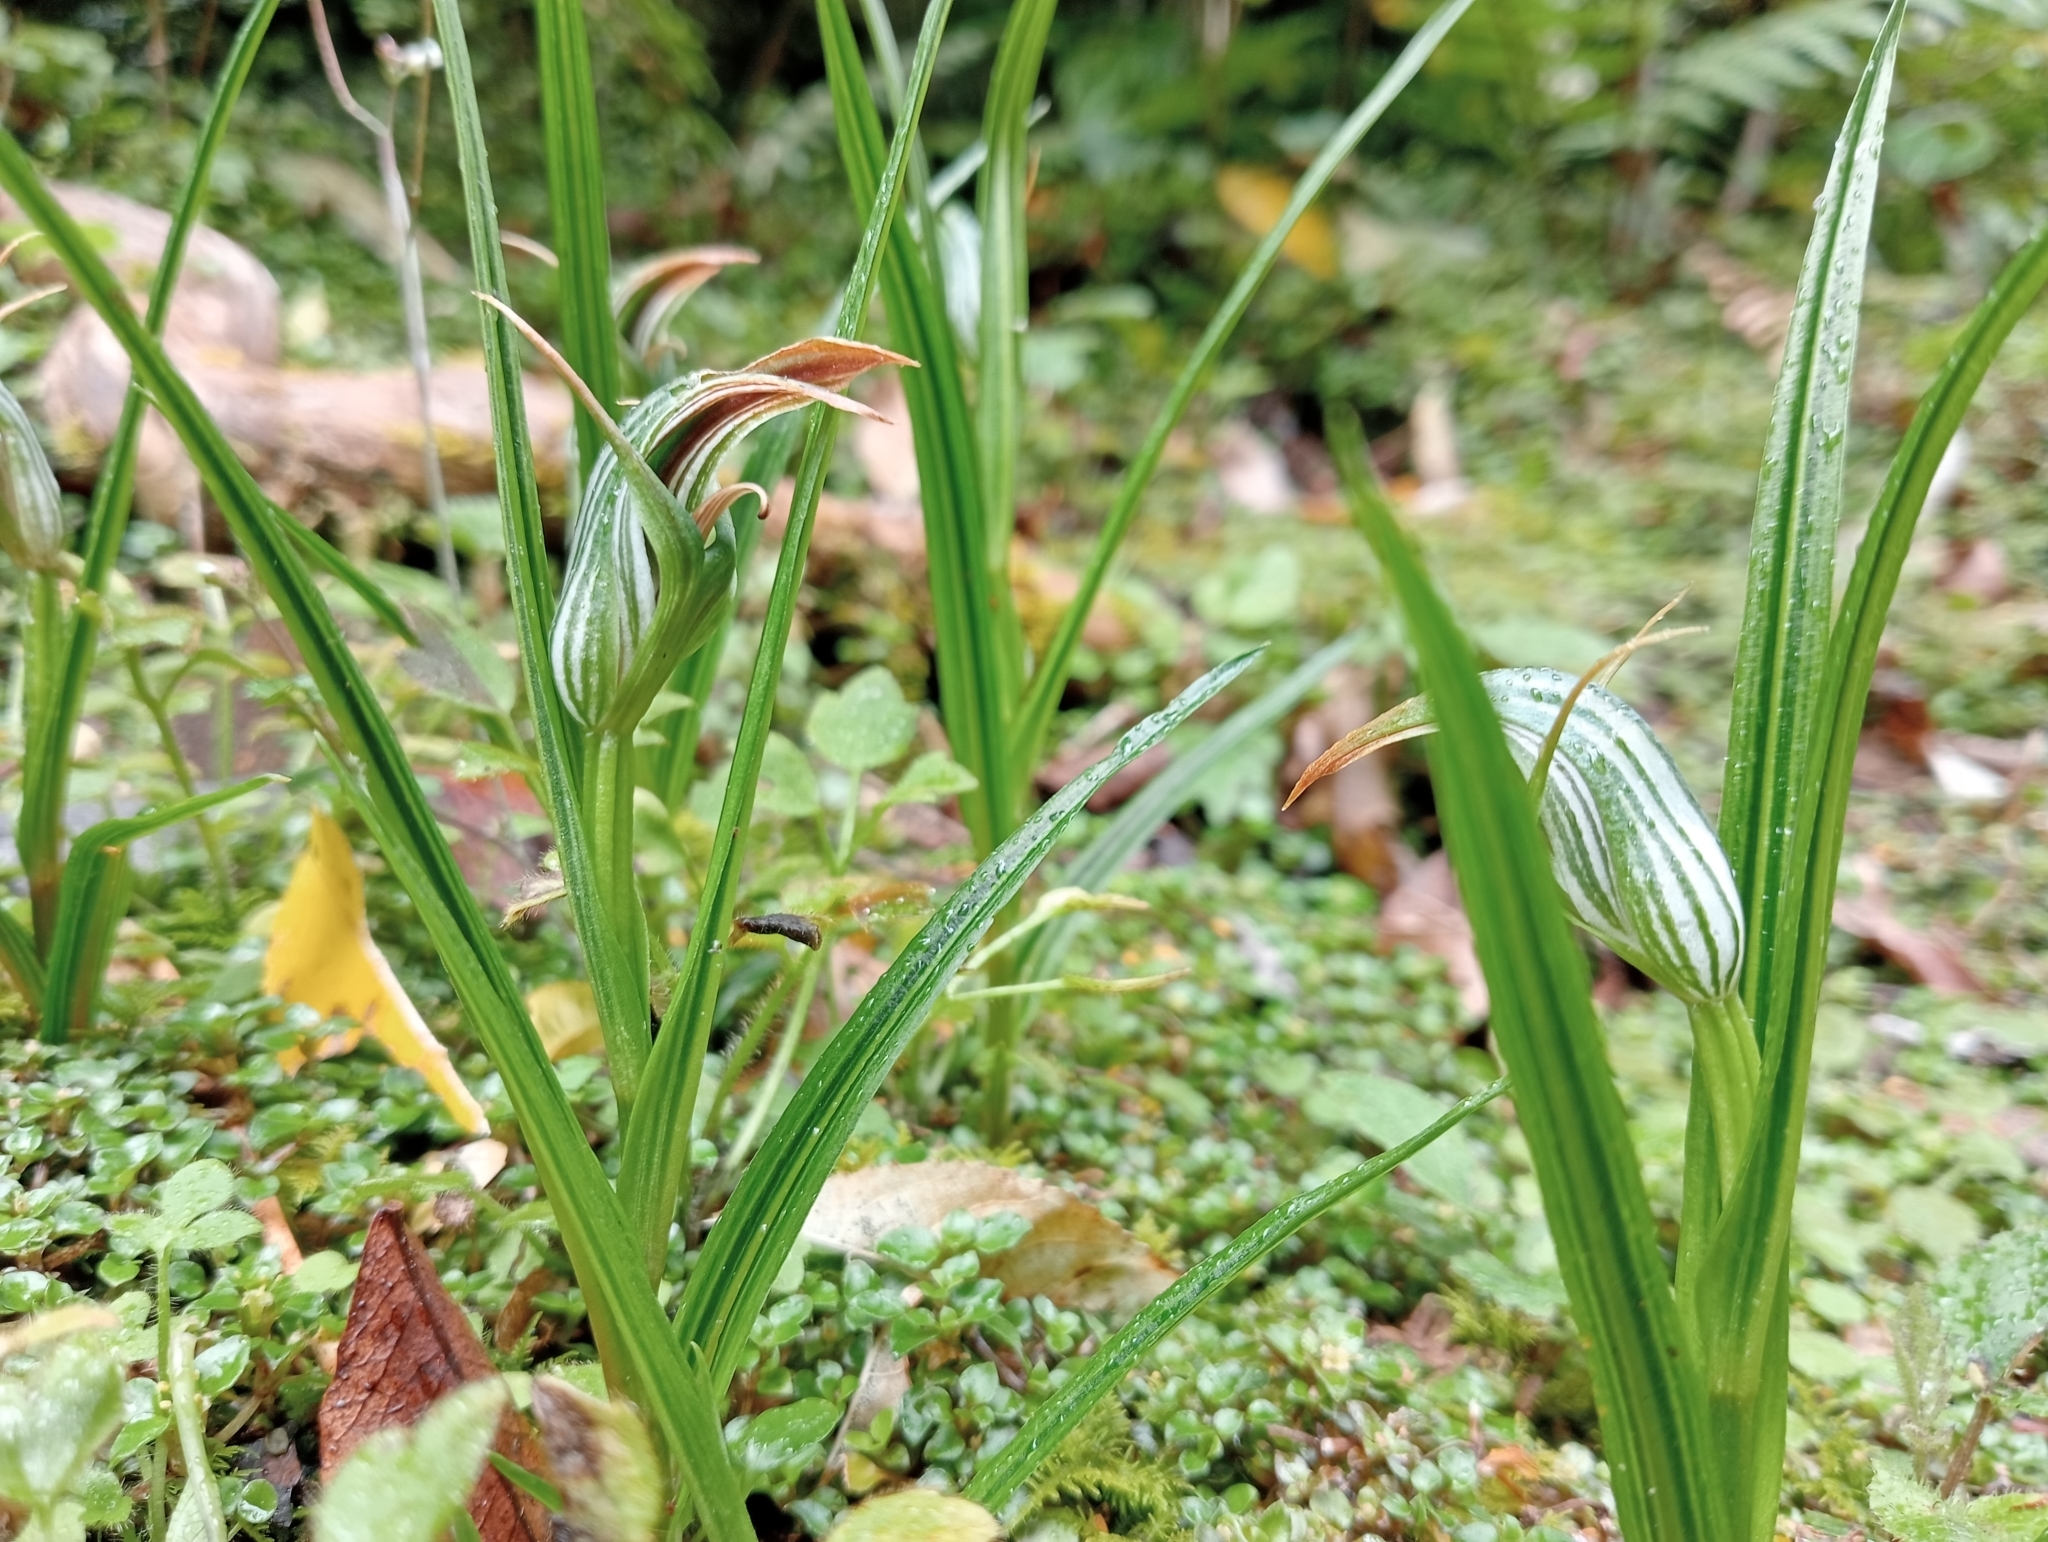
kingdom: Plantae
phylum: Tracheophyta
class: Liliopsida
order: Asparagales
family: Orchidaceae
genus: Pterostylis
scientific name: Pterostylis irsoniana
